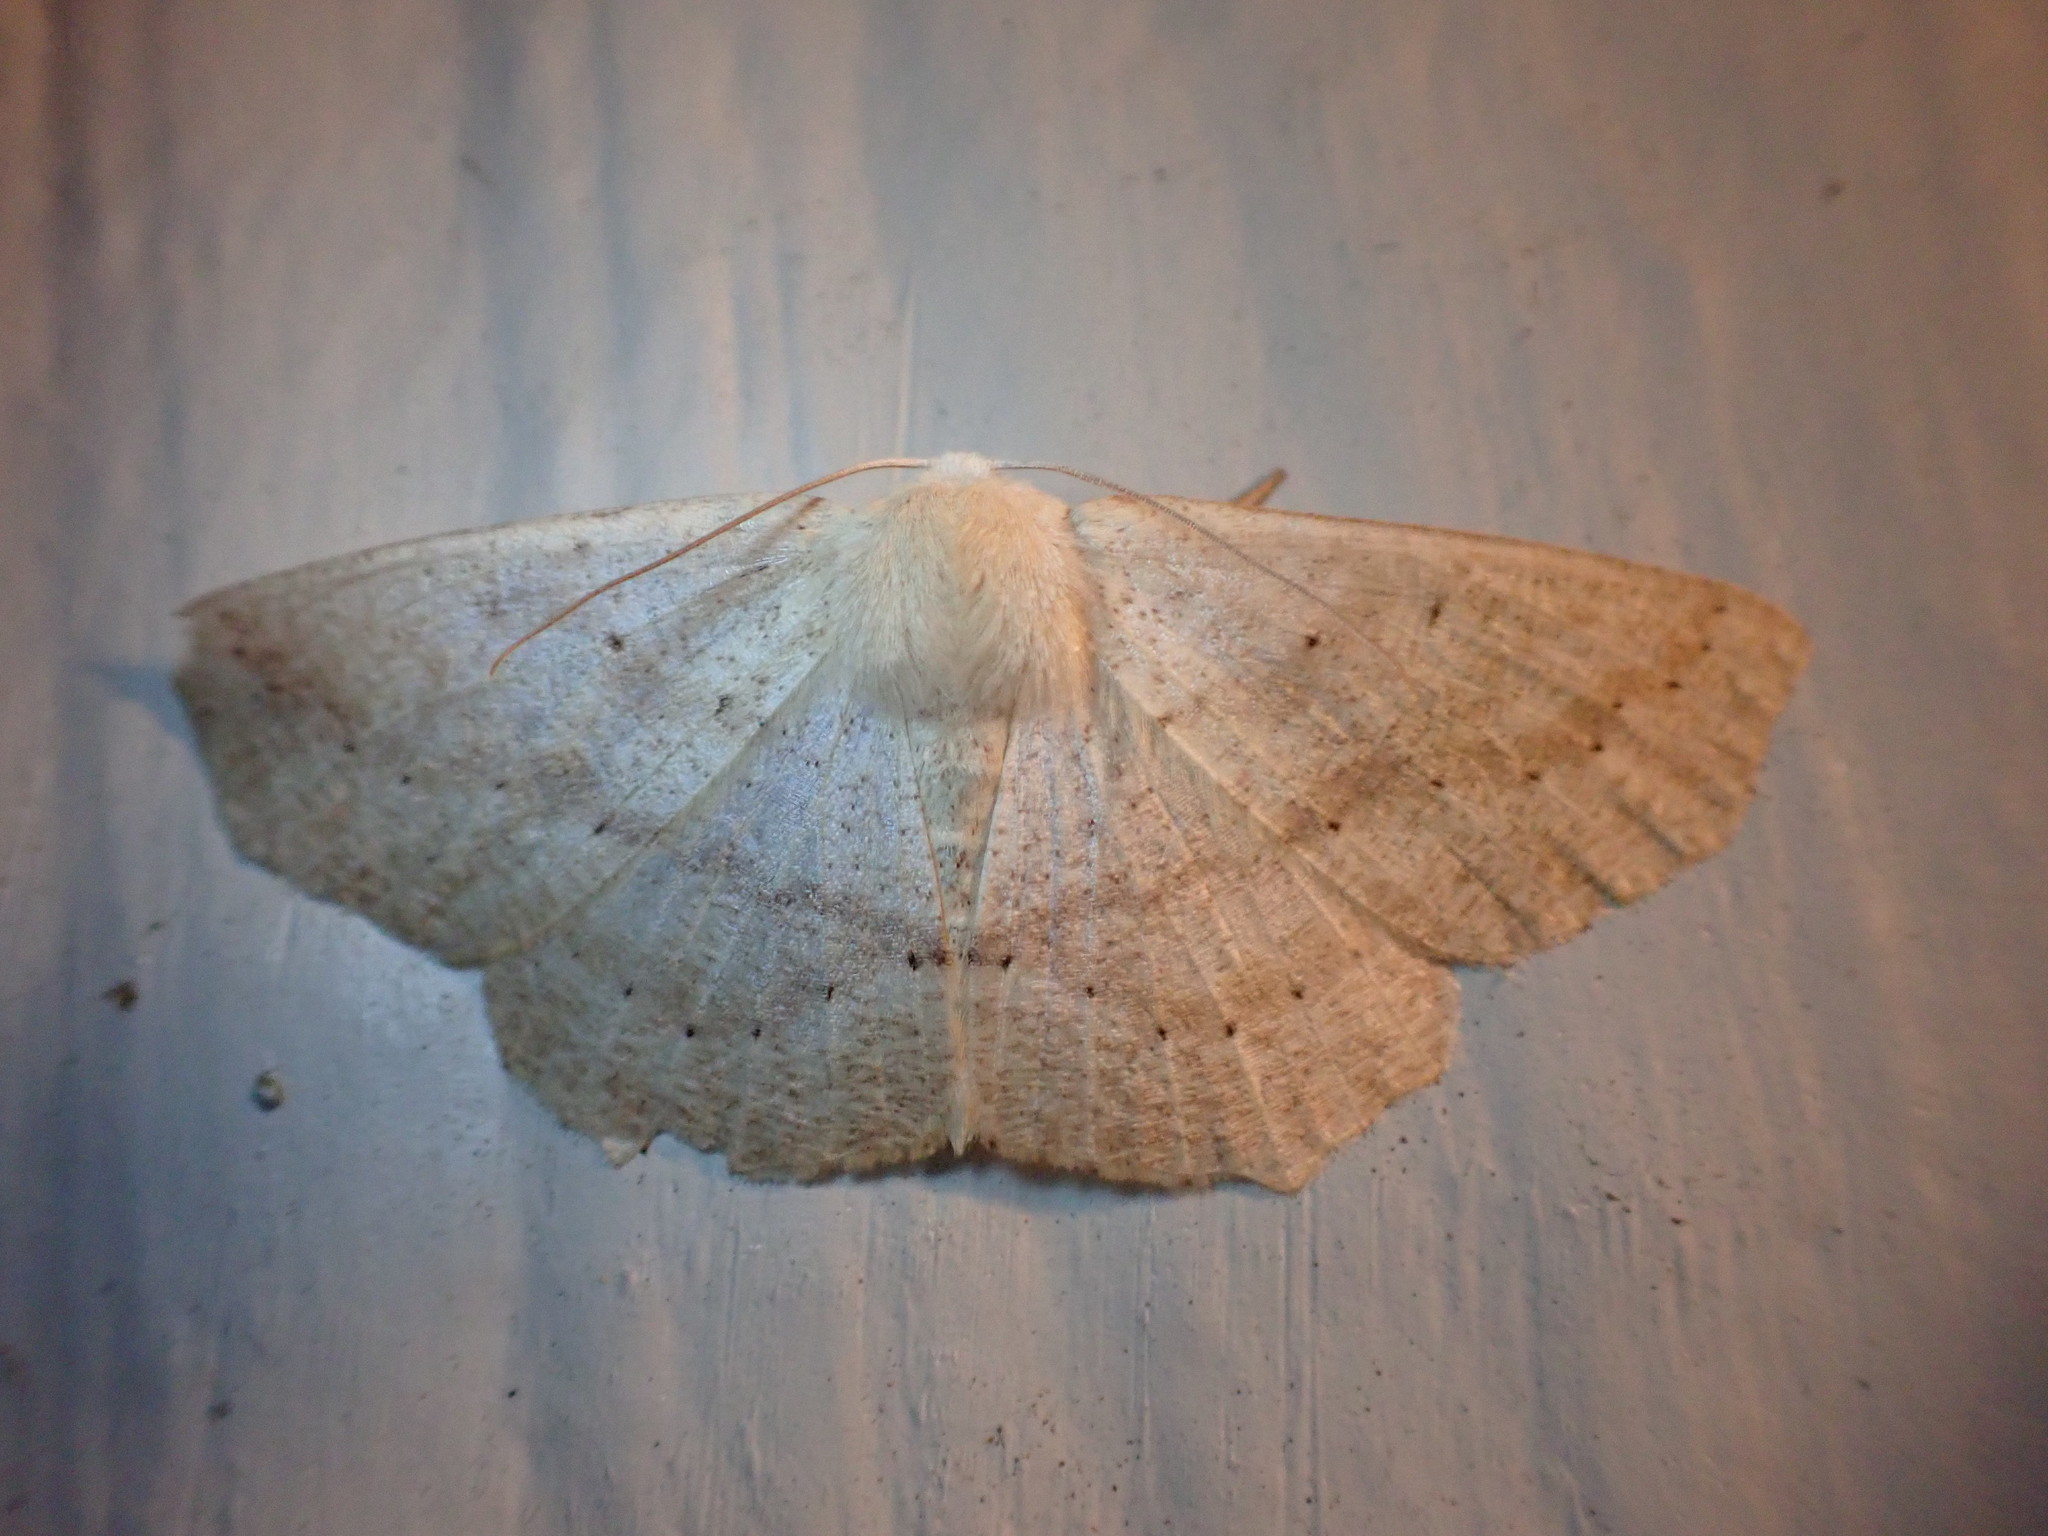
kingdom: Animalia
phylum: Arthropoda
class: Insecta
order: Lepidoptera
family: Geometridae
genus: Sabulodes
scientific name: Sabulodes aegrotata
